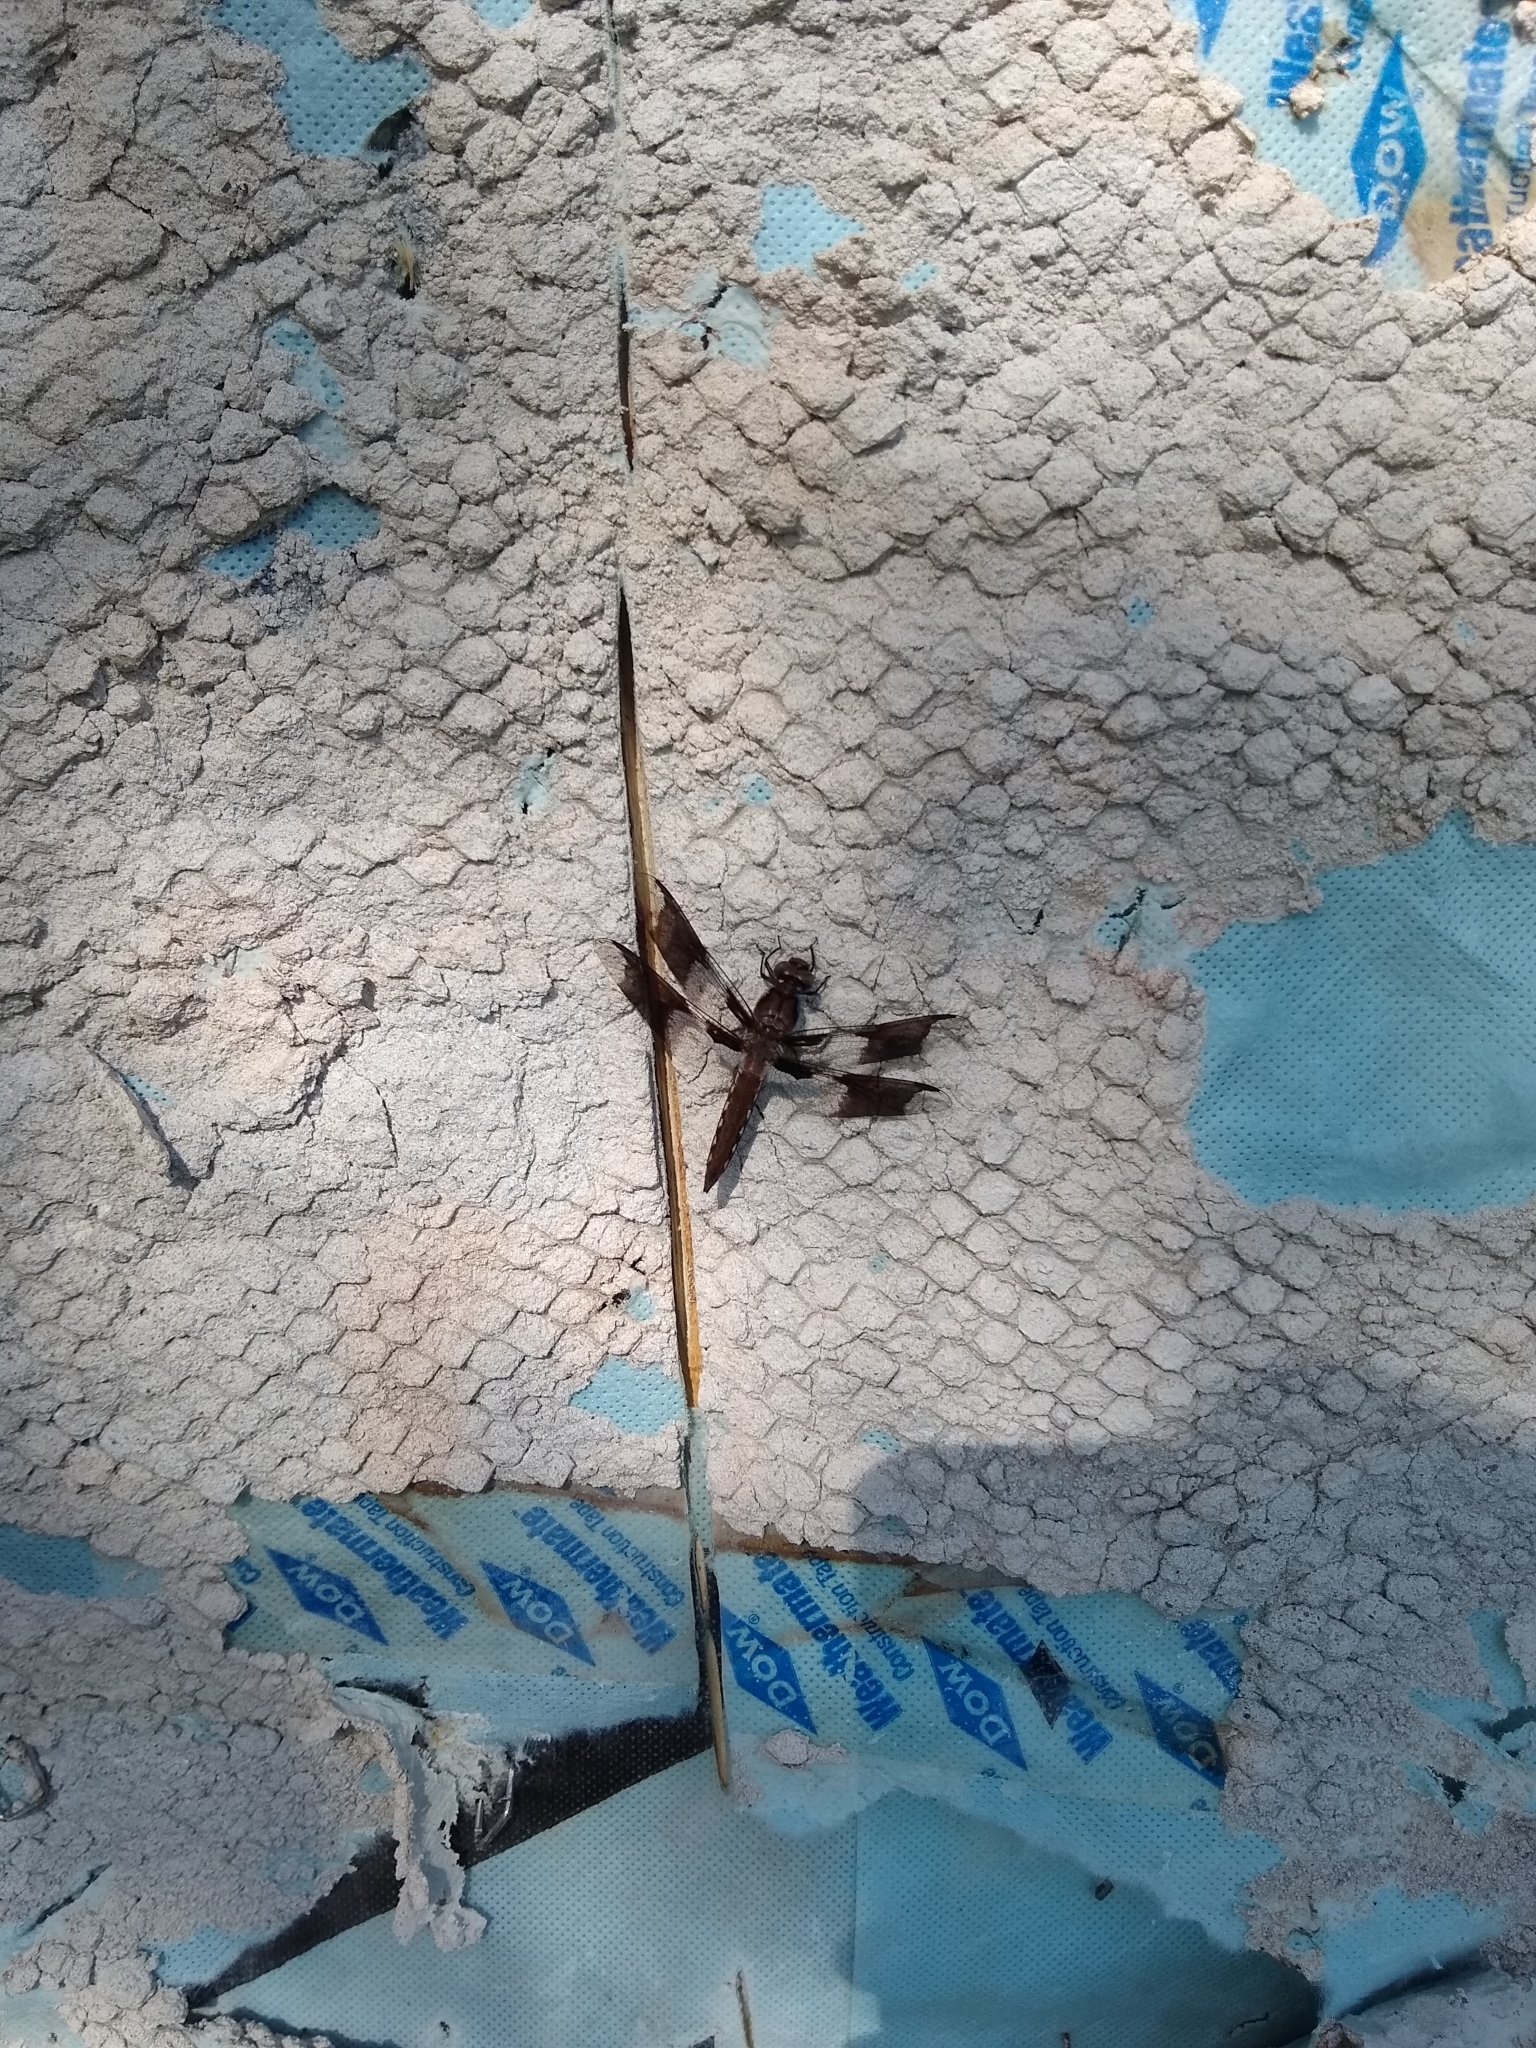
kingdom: Animalia
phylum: Arthropoda
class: Insecta
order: Odonata
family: Libellulidae
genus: Plathemis
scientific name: Plathemis lydia
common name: Common whitetail
